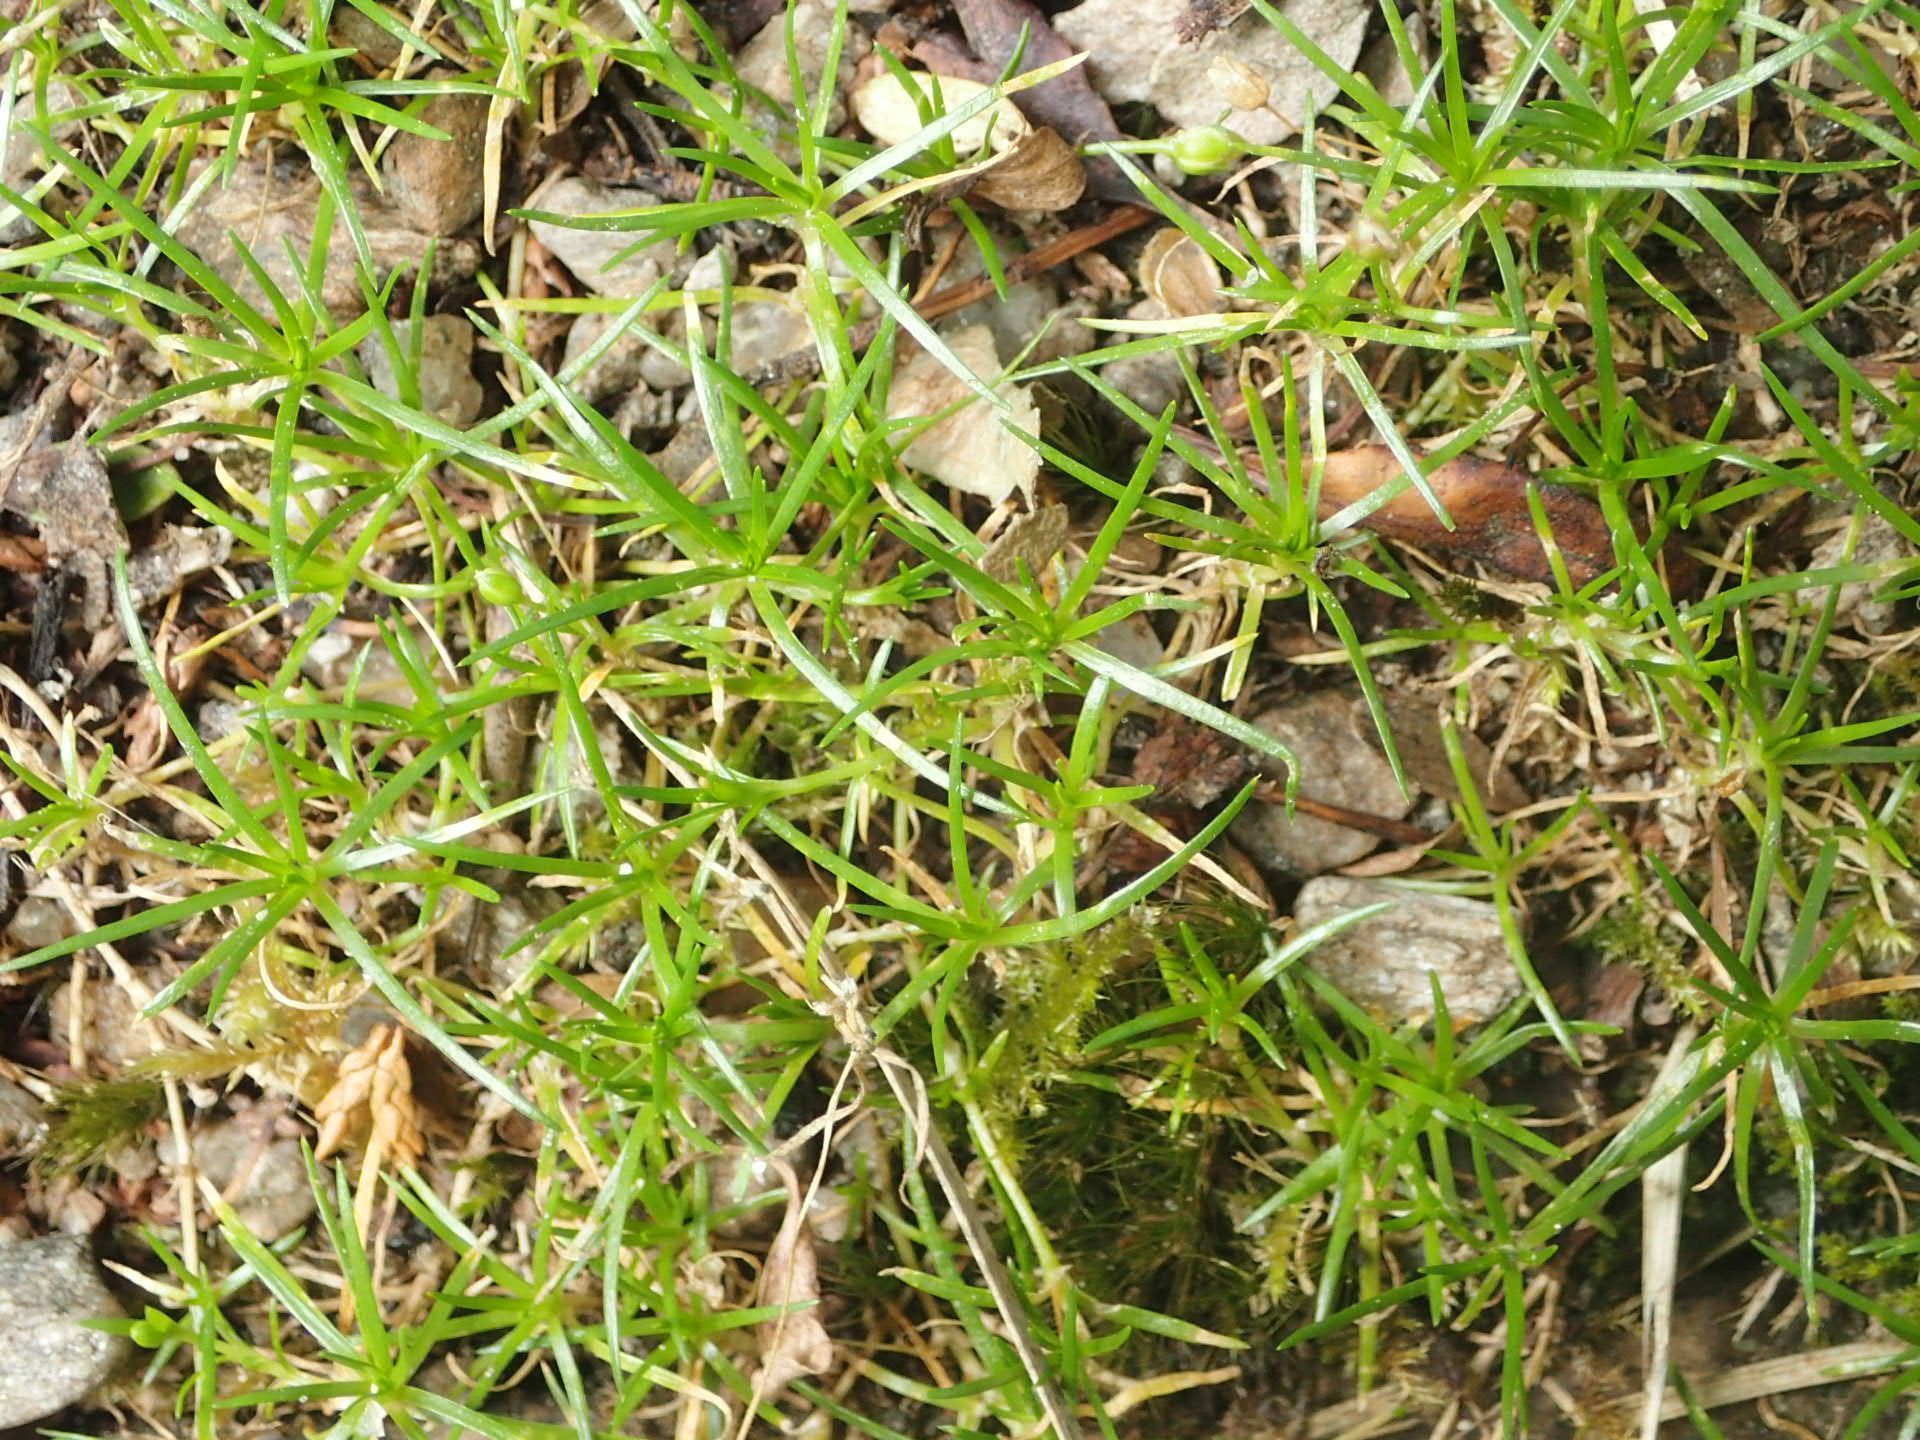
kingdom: Plantae
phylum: Tracheophyta
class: Magnoliopsida
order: Caryophyllales
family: Caryophyllaceae
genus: Sagina
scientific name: Sagina procumbens
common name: Procumbent pearlwort
